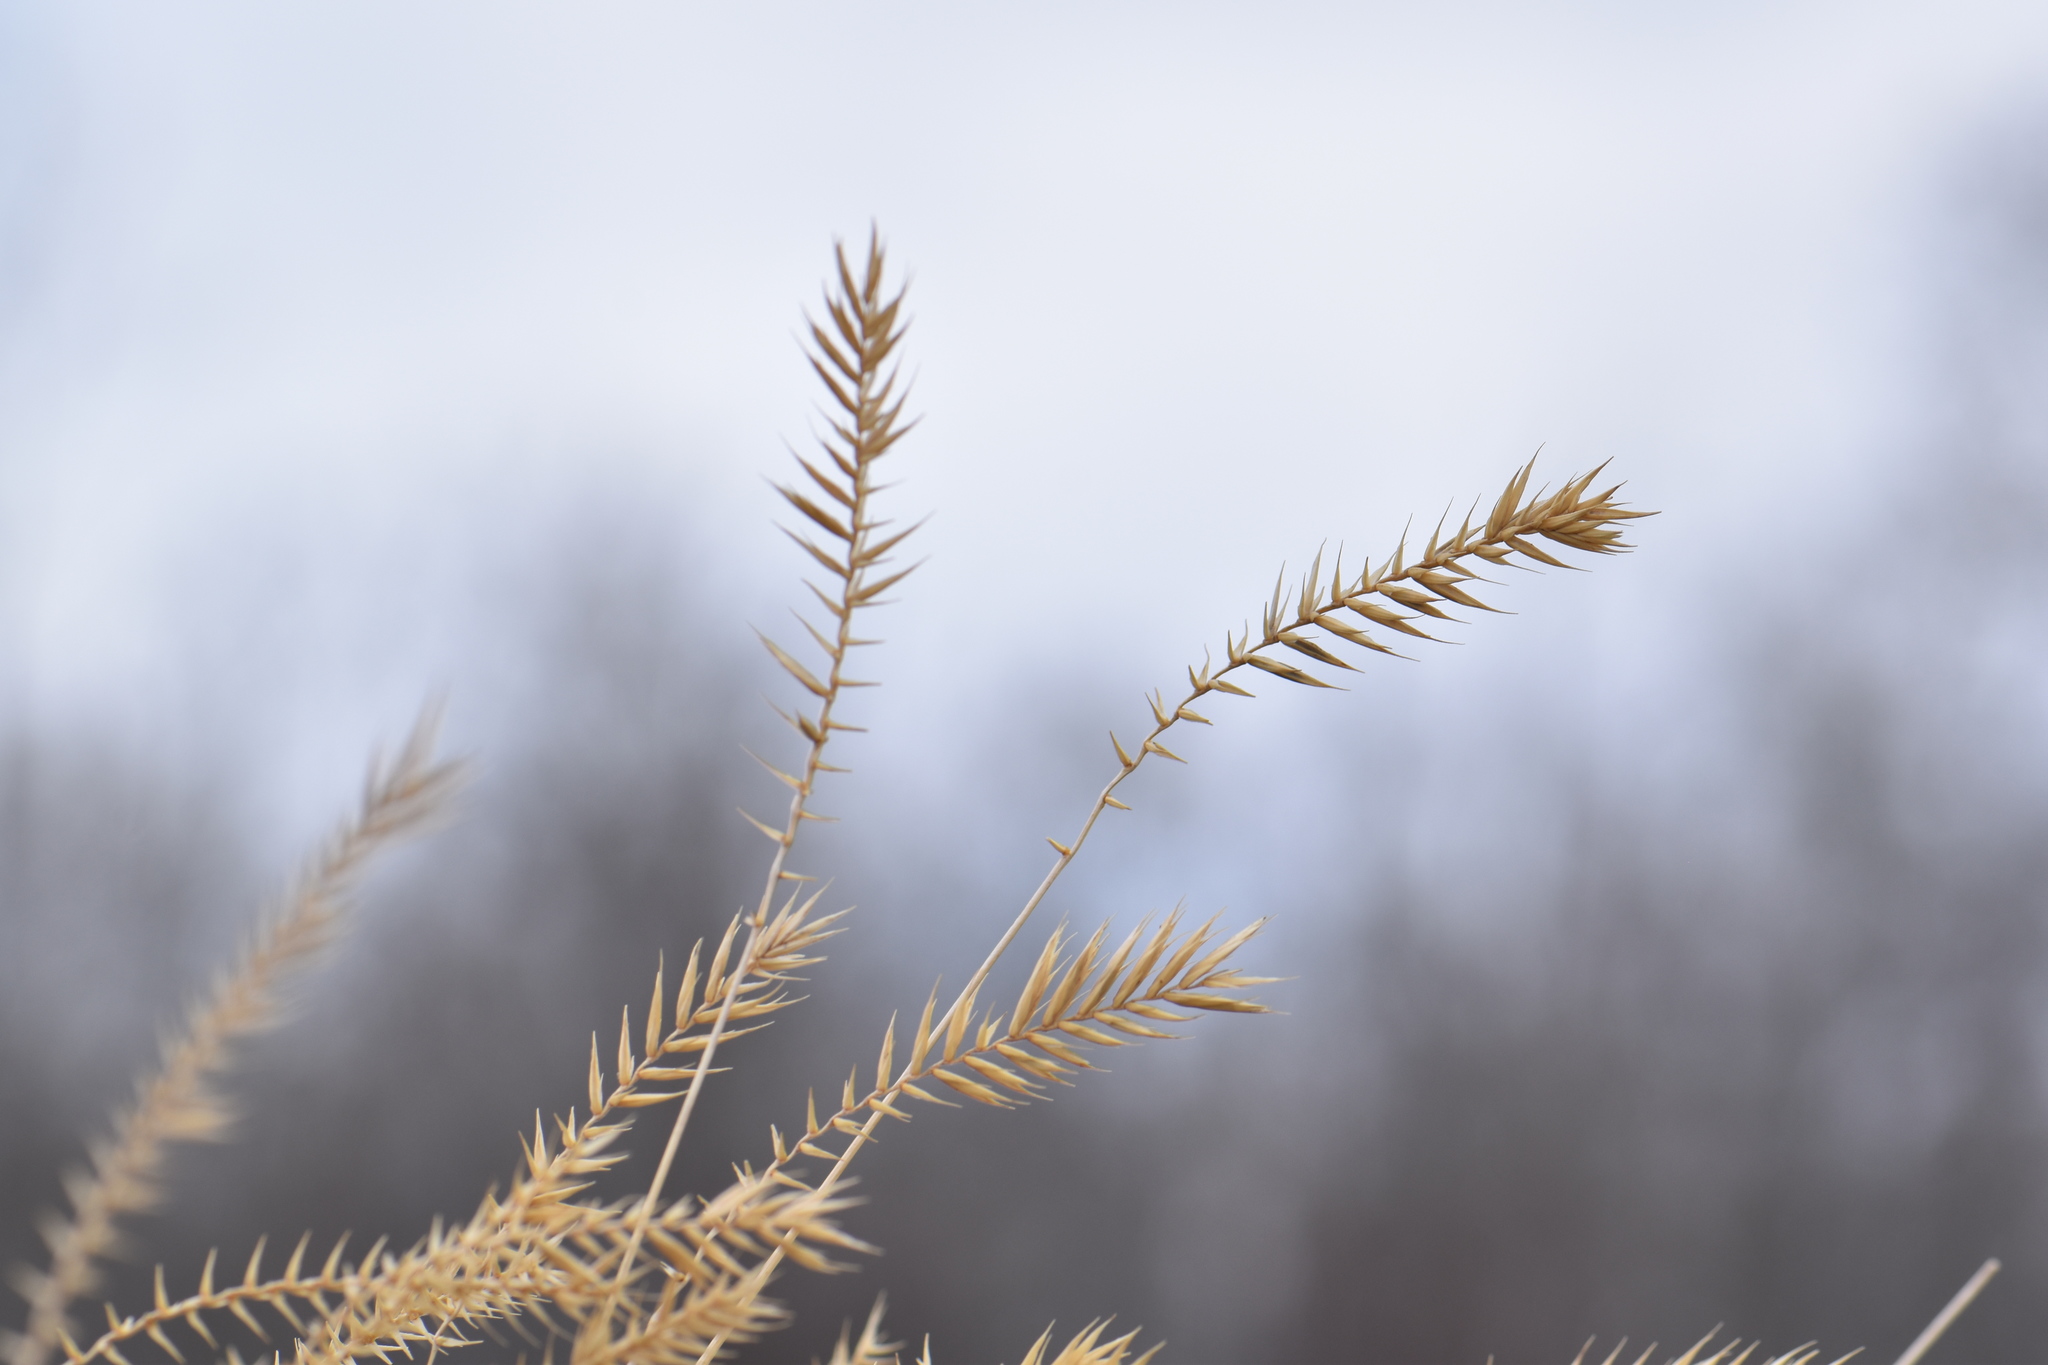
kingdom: Plantae
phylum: Tracheophyta
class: Liliopsida
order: Poales
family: Poaceae
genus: Agropyron
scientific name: Agropyron cristatum
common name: Crested wheatgrass
